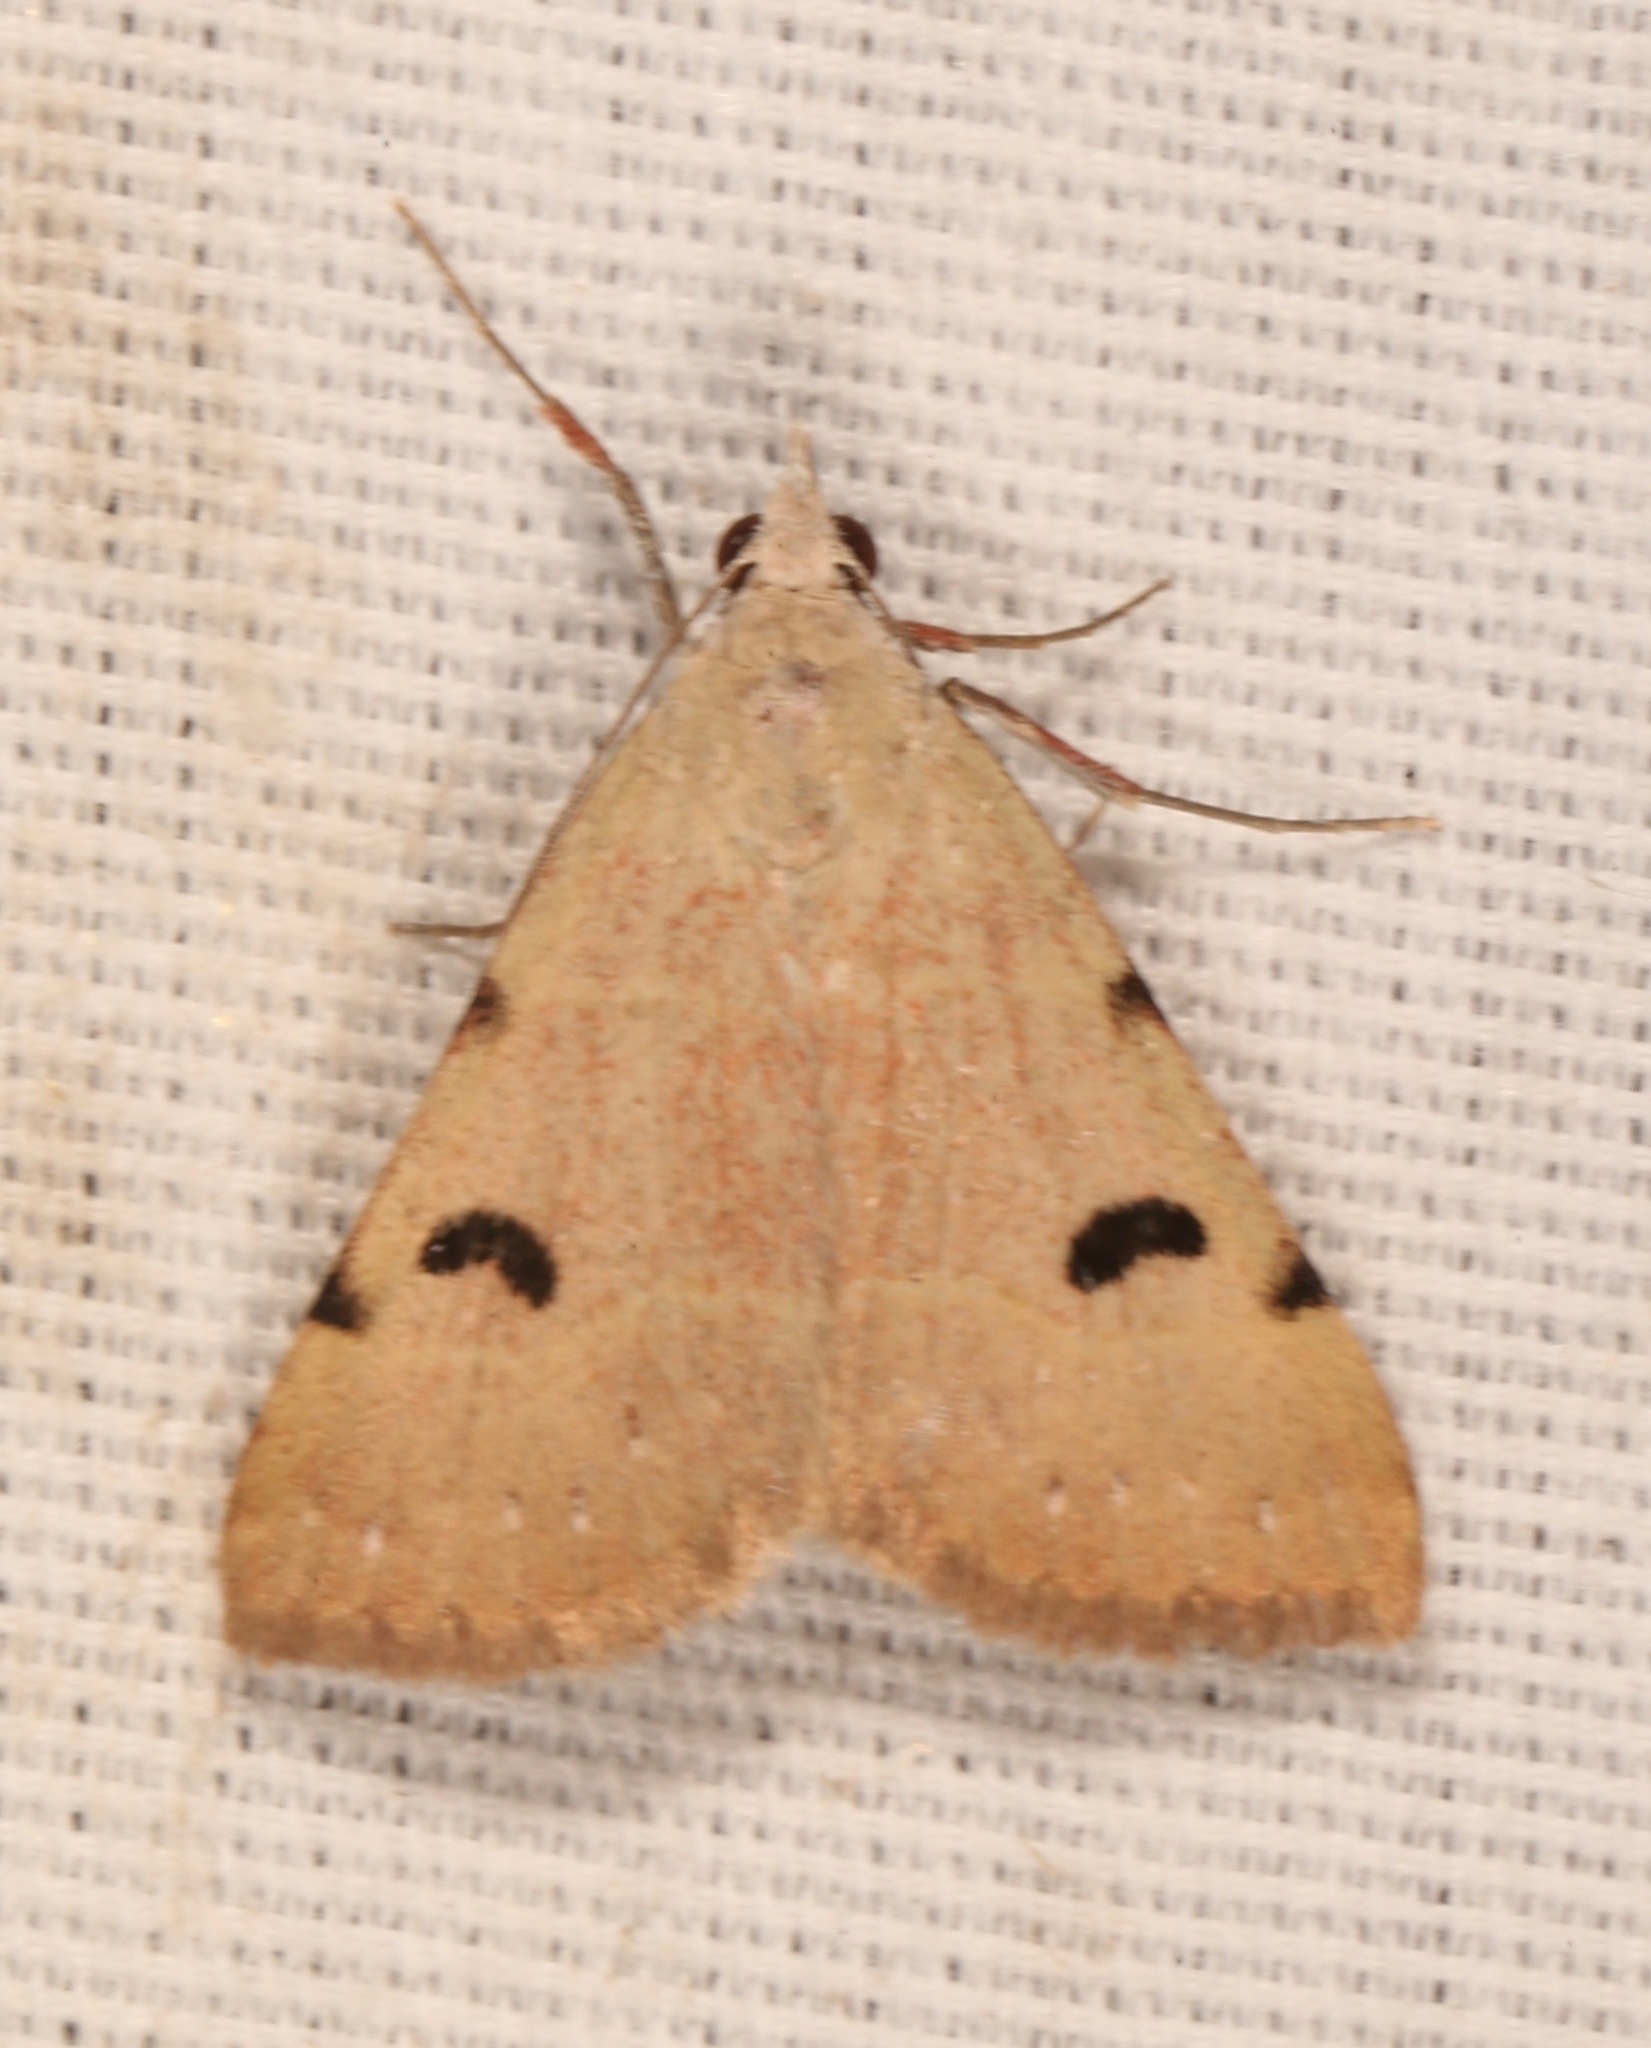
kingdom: Animalia
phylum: Arthropoda
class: Insecta
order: Lepidoptera
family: Erebidae
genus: Hemeroplanis
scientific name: Hemeroplanis historialis
